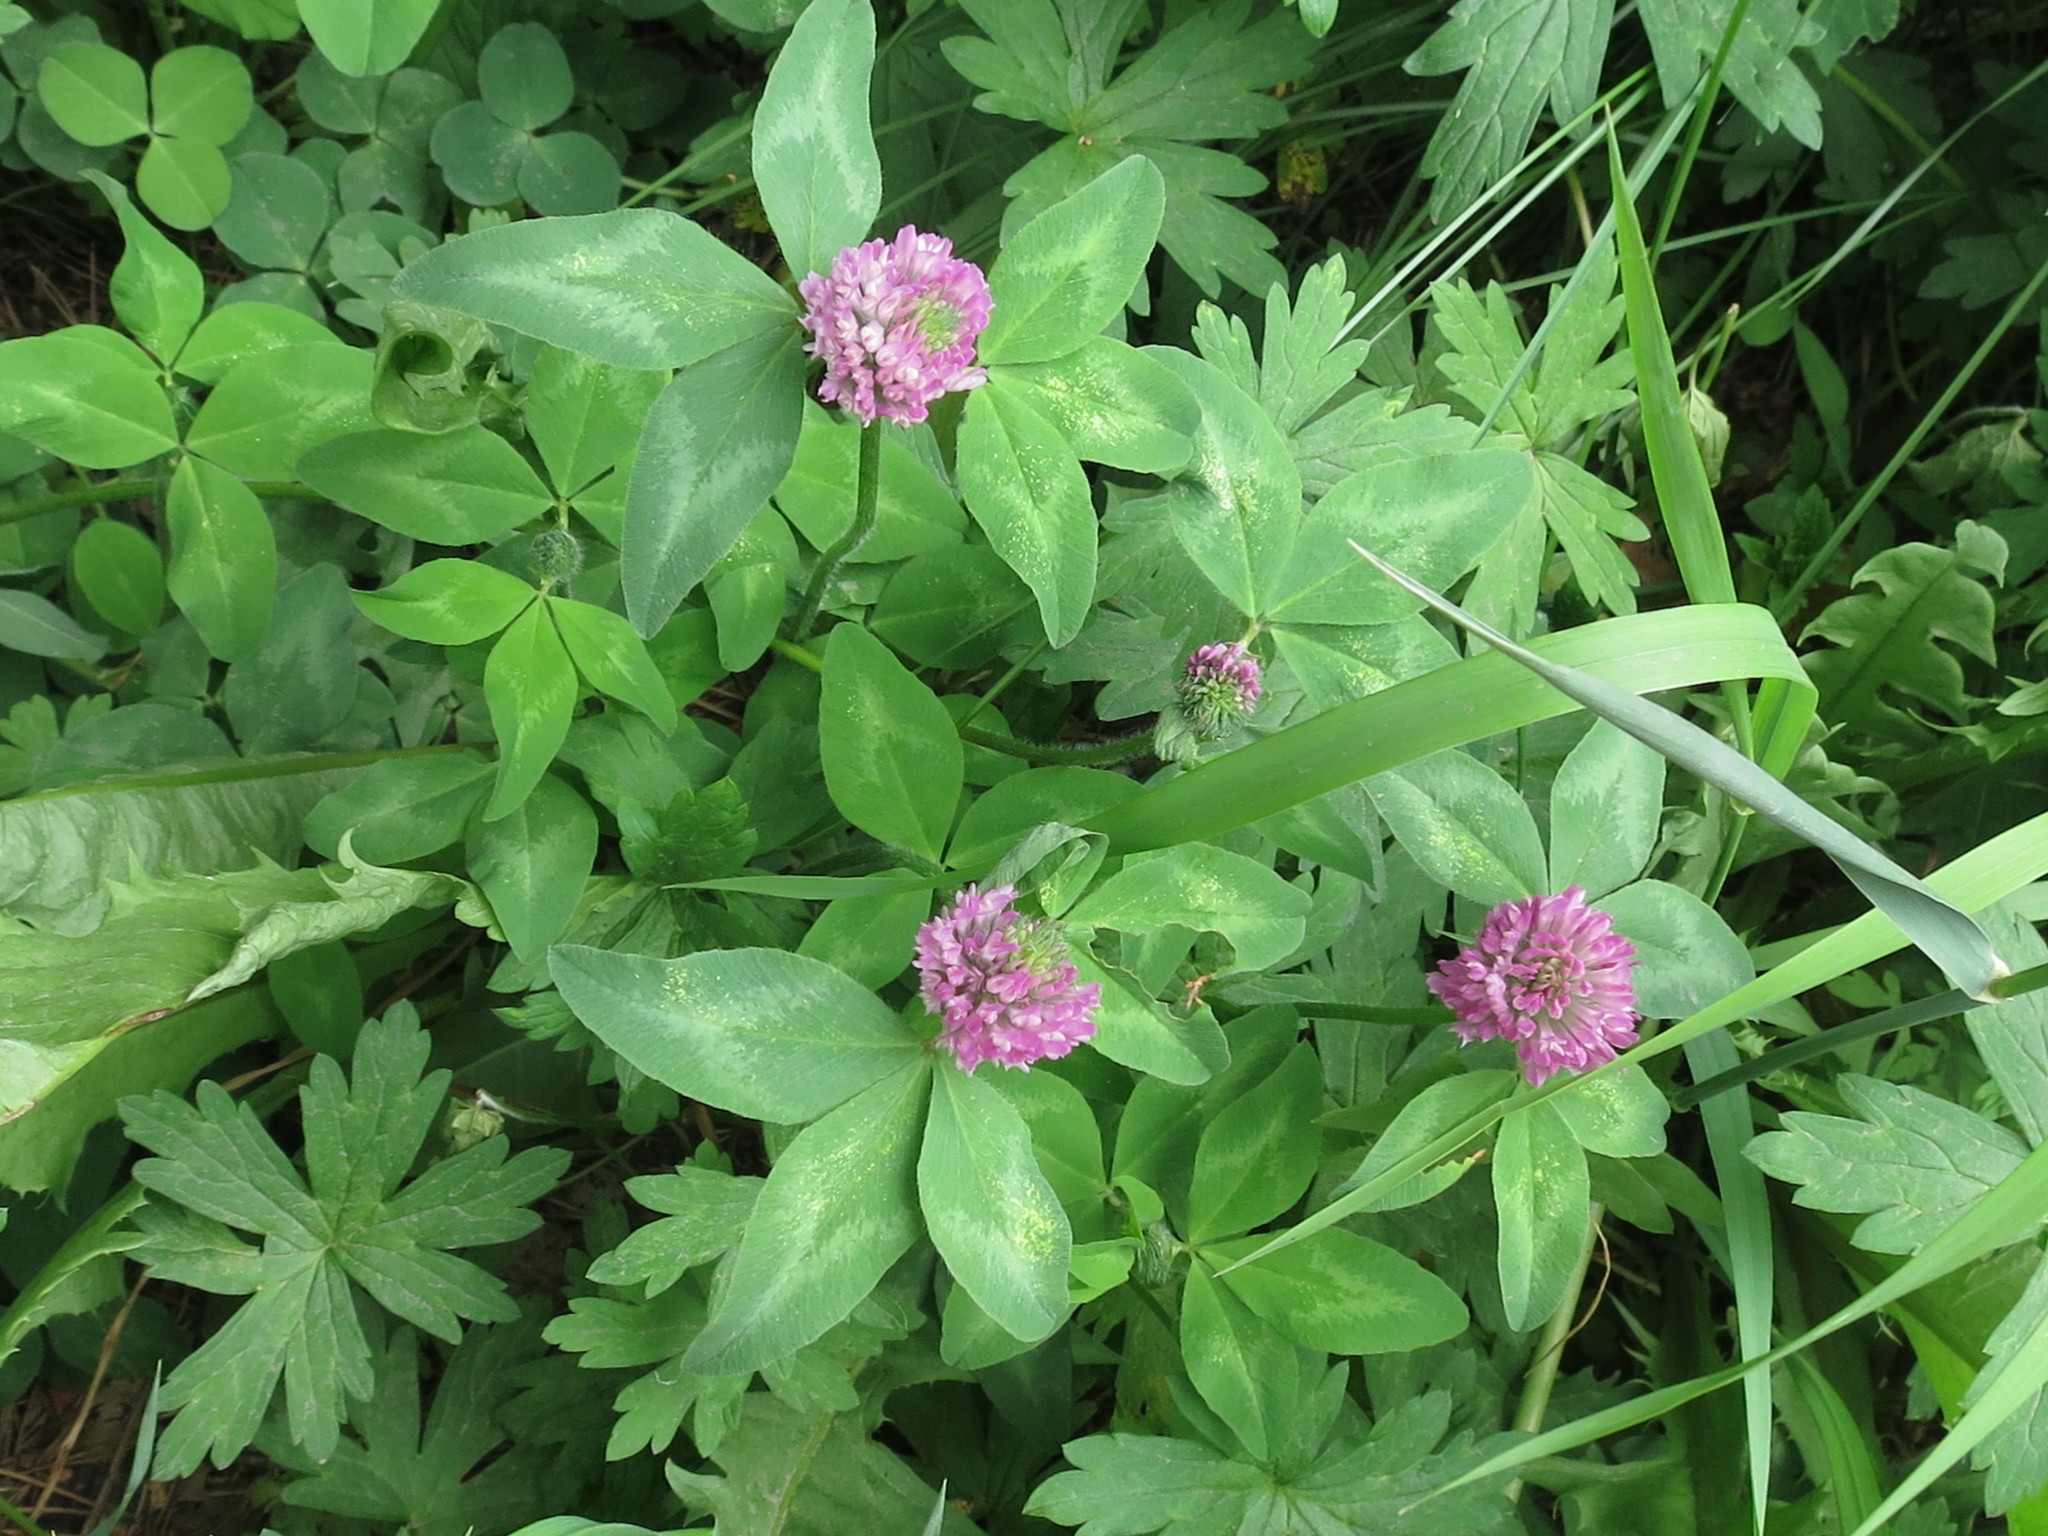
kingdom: Plantae
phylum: Tracheophyta
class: Magnoliopsida
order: Fabales
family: Fabaceae
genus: Trifolium
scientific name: Trifolium pratense
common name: Red clover
